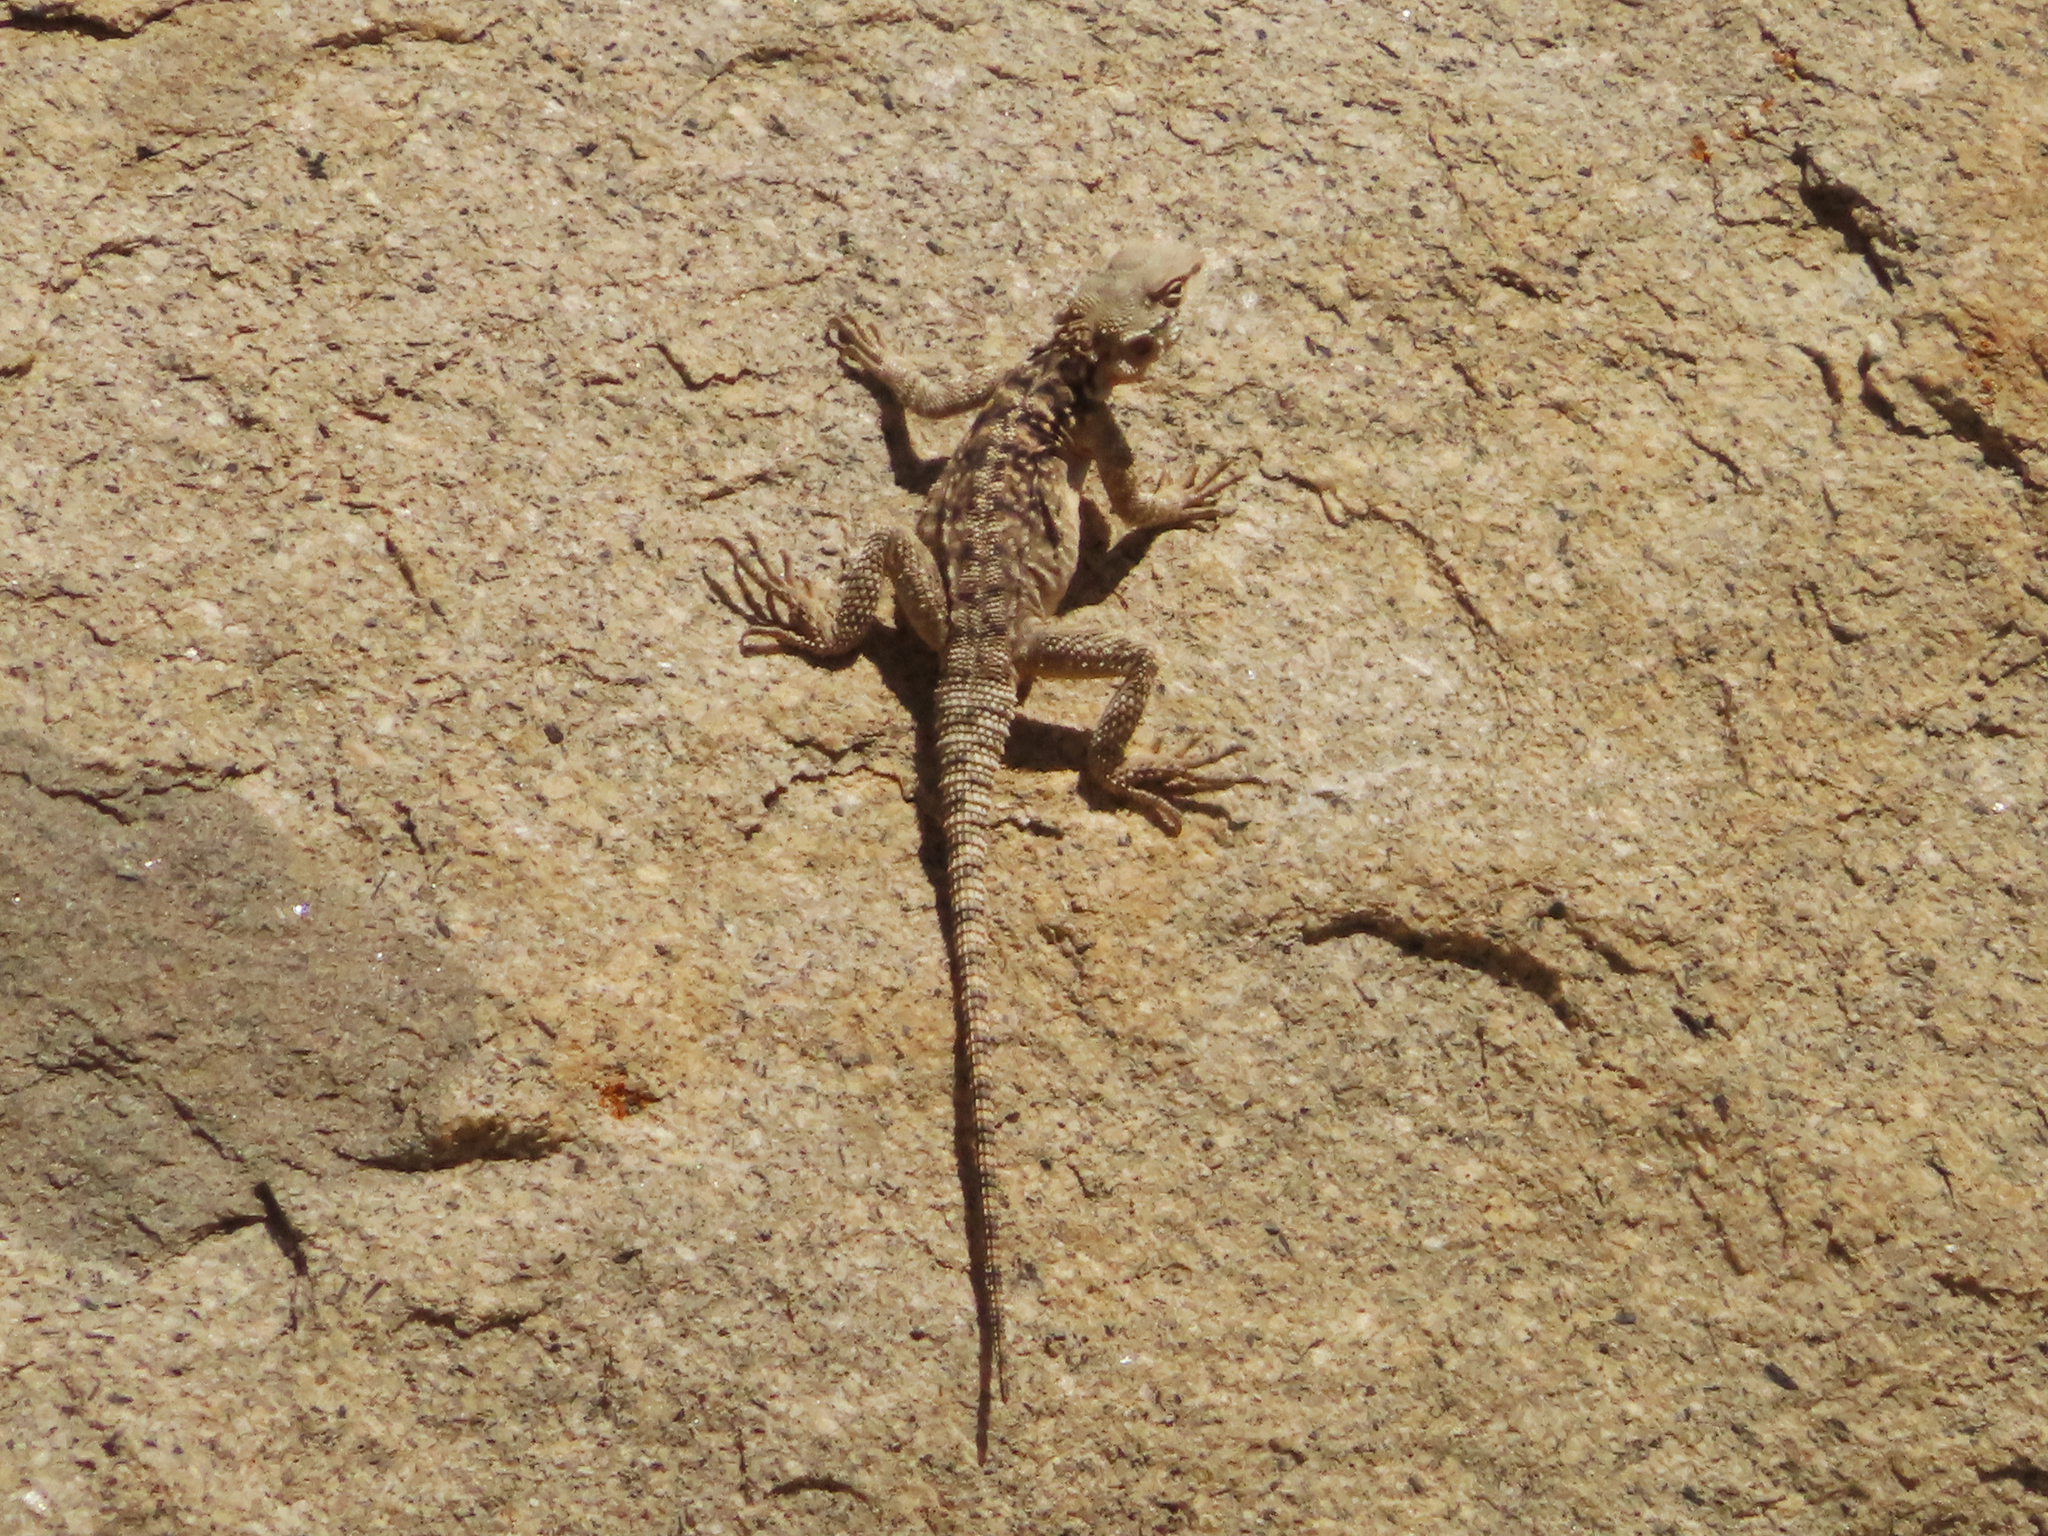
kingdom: Animalia
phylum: Chordata
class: Squamata
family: Agamidae
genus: Paralaudakia
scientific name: Paralaudakia caucasia
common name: Caucasian agama
